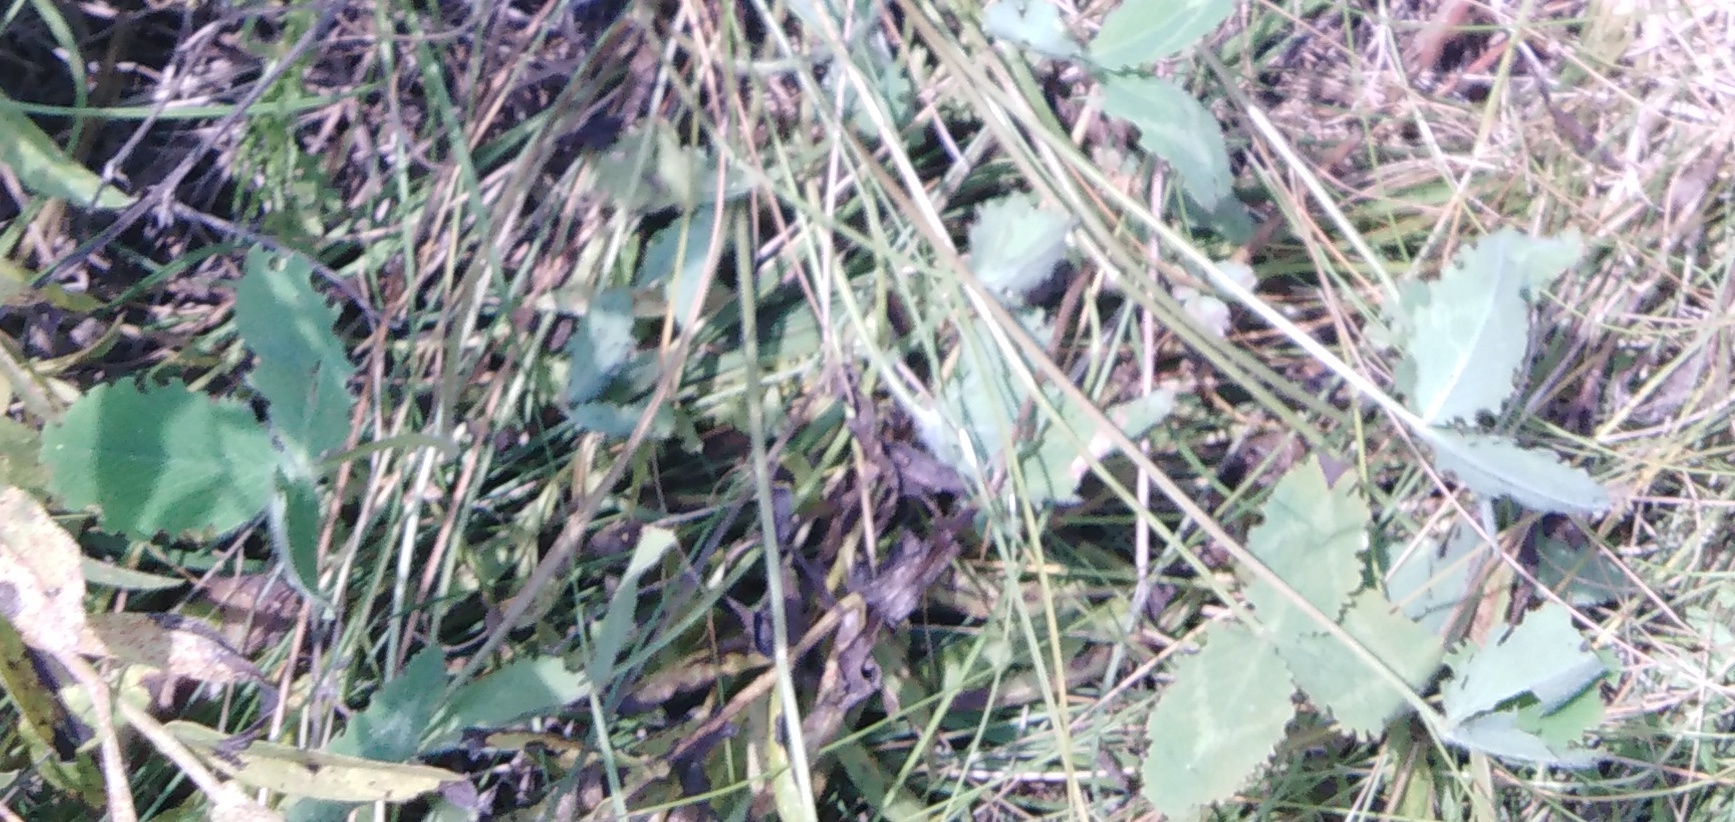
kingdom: Plantae
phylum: Tracheophyta
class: Magnoliopsida
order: Fabales
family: Fabaceae
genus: Trifolium
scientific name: Trifolium pratense
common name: Red clover
